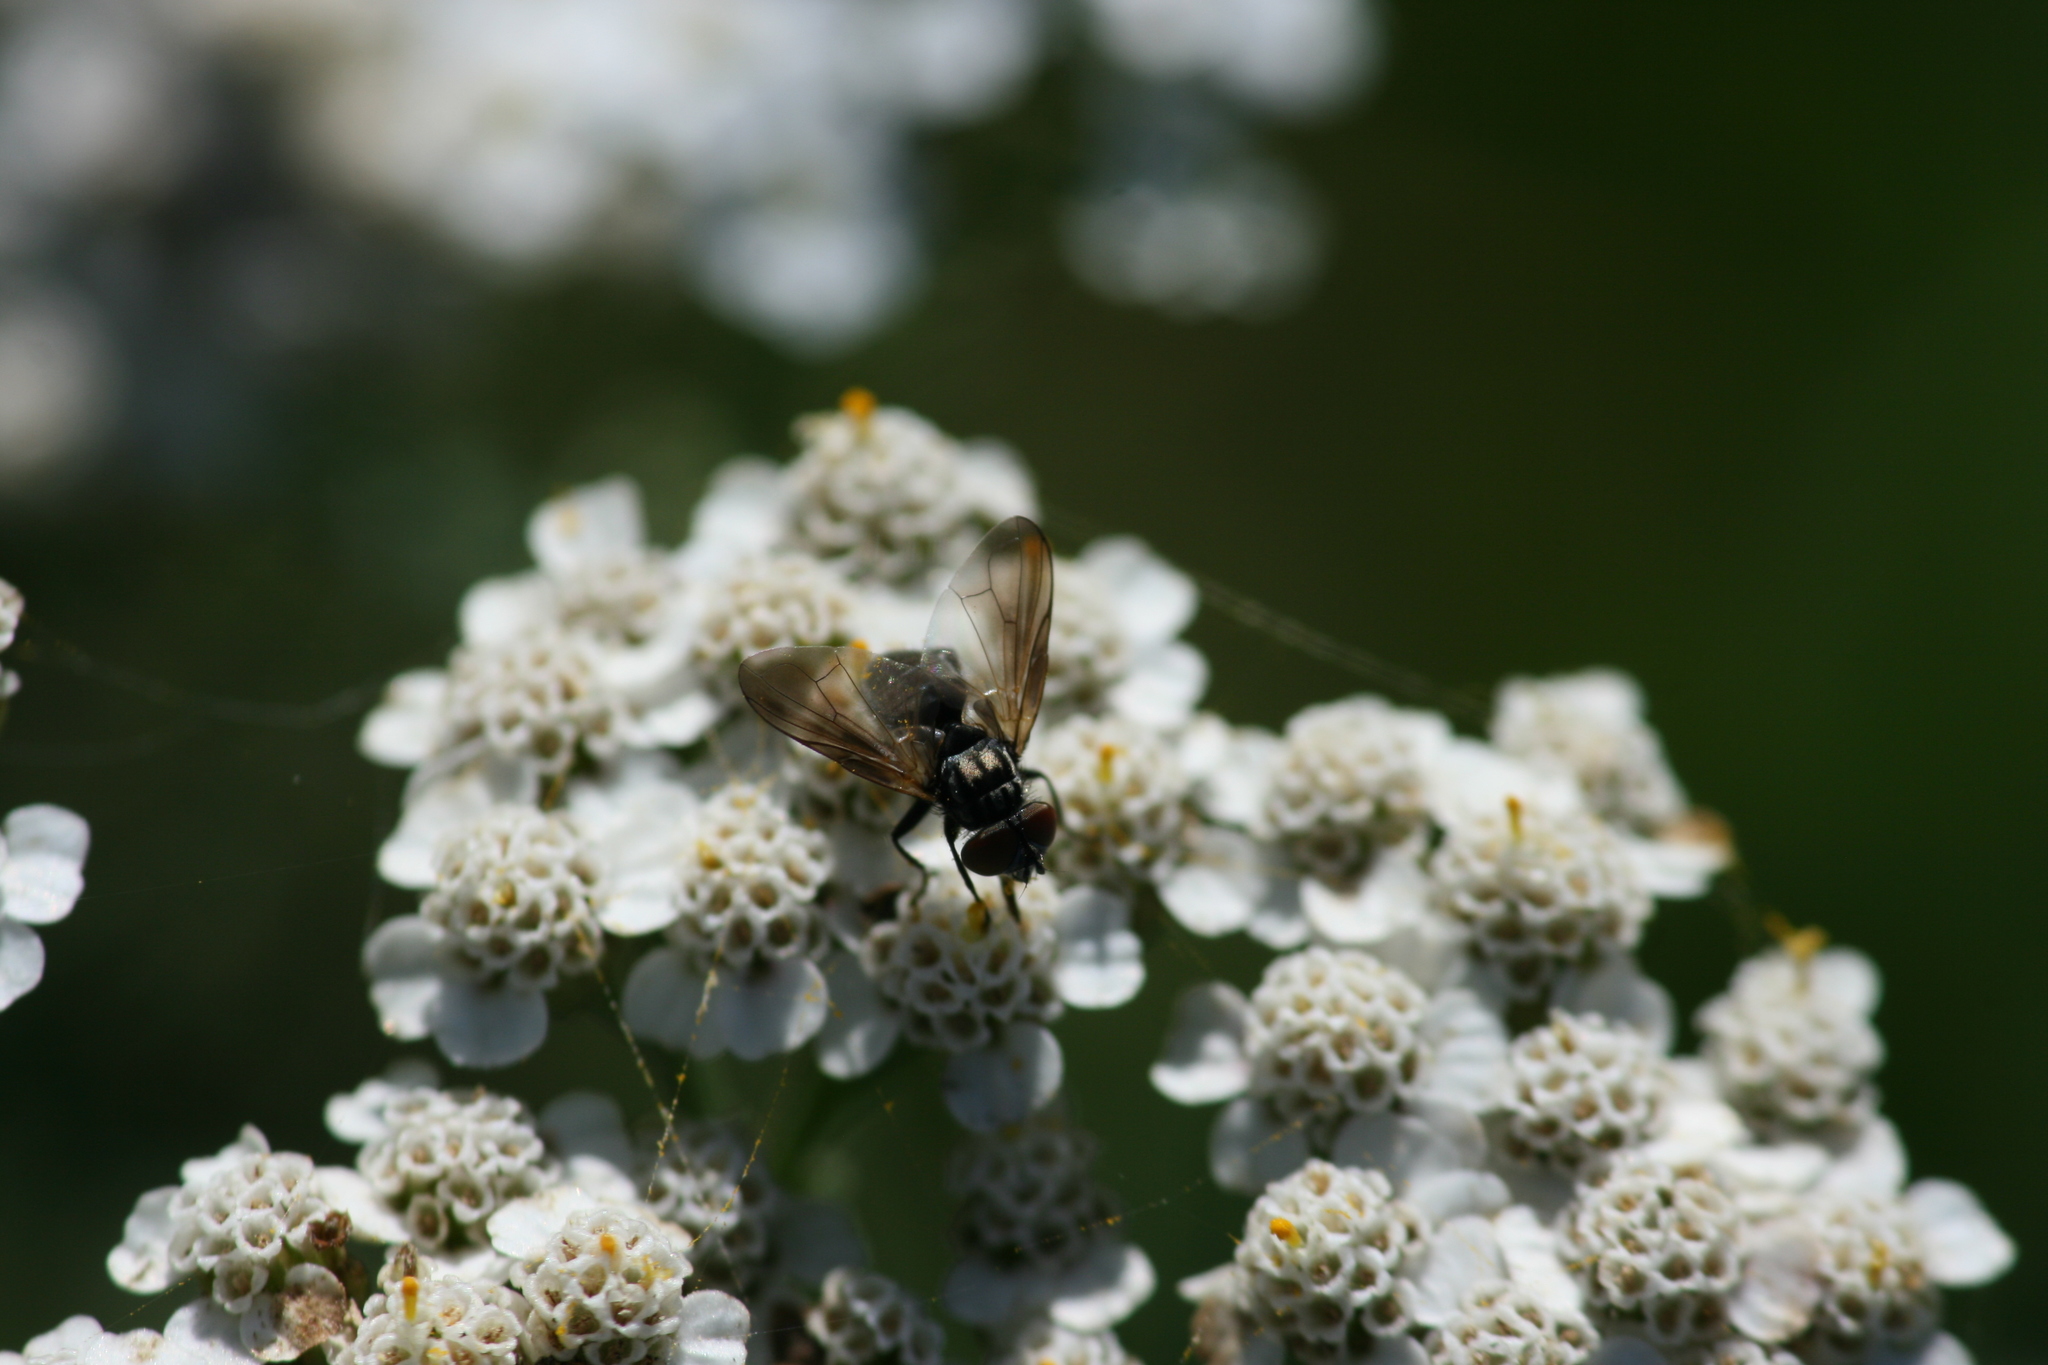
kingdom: Animalia
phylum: Arthropoda
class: Insecta
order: Diptera
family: Tachinidae
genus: Phasia
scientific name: Phasia obesa
